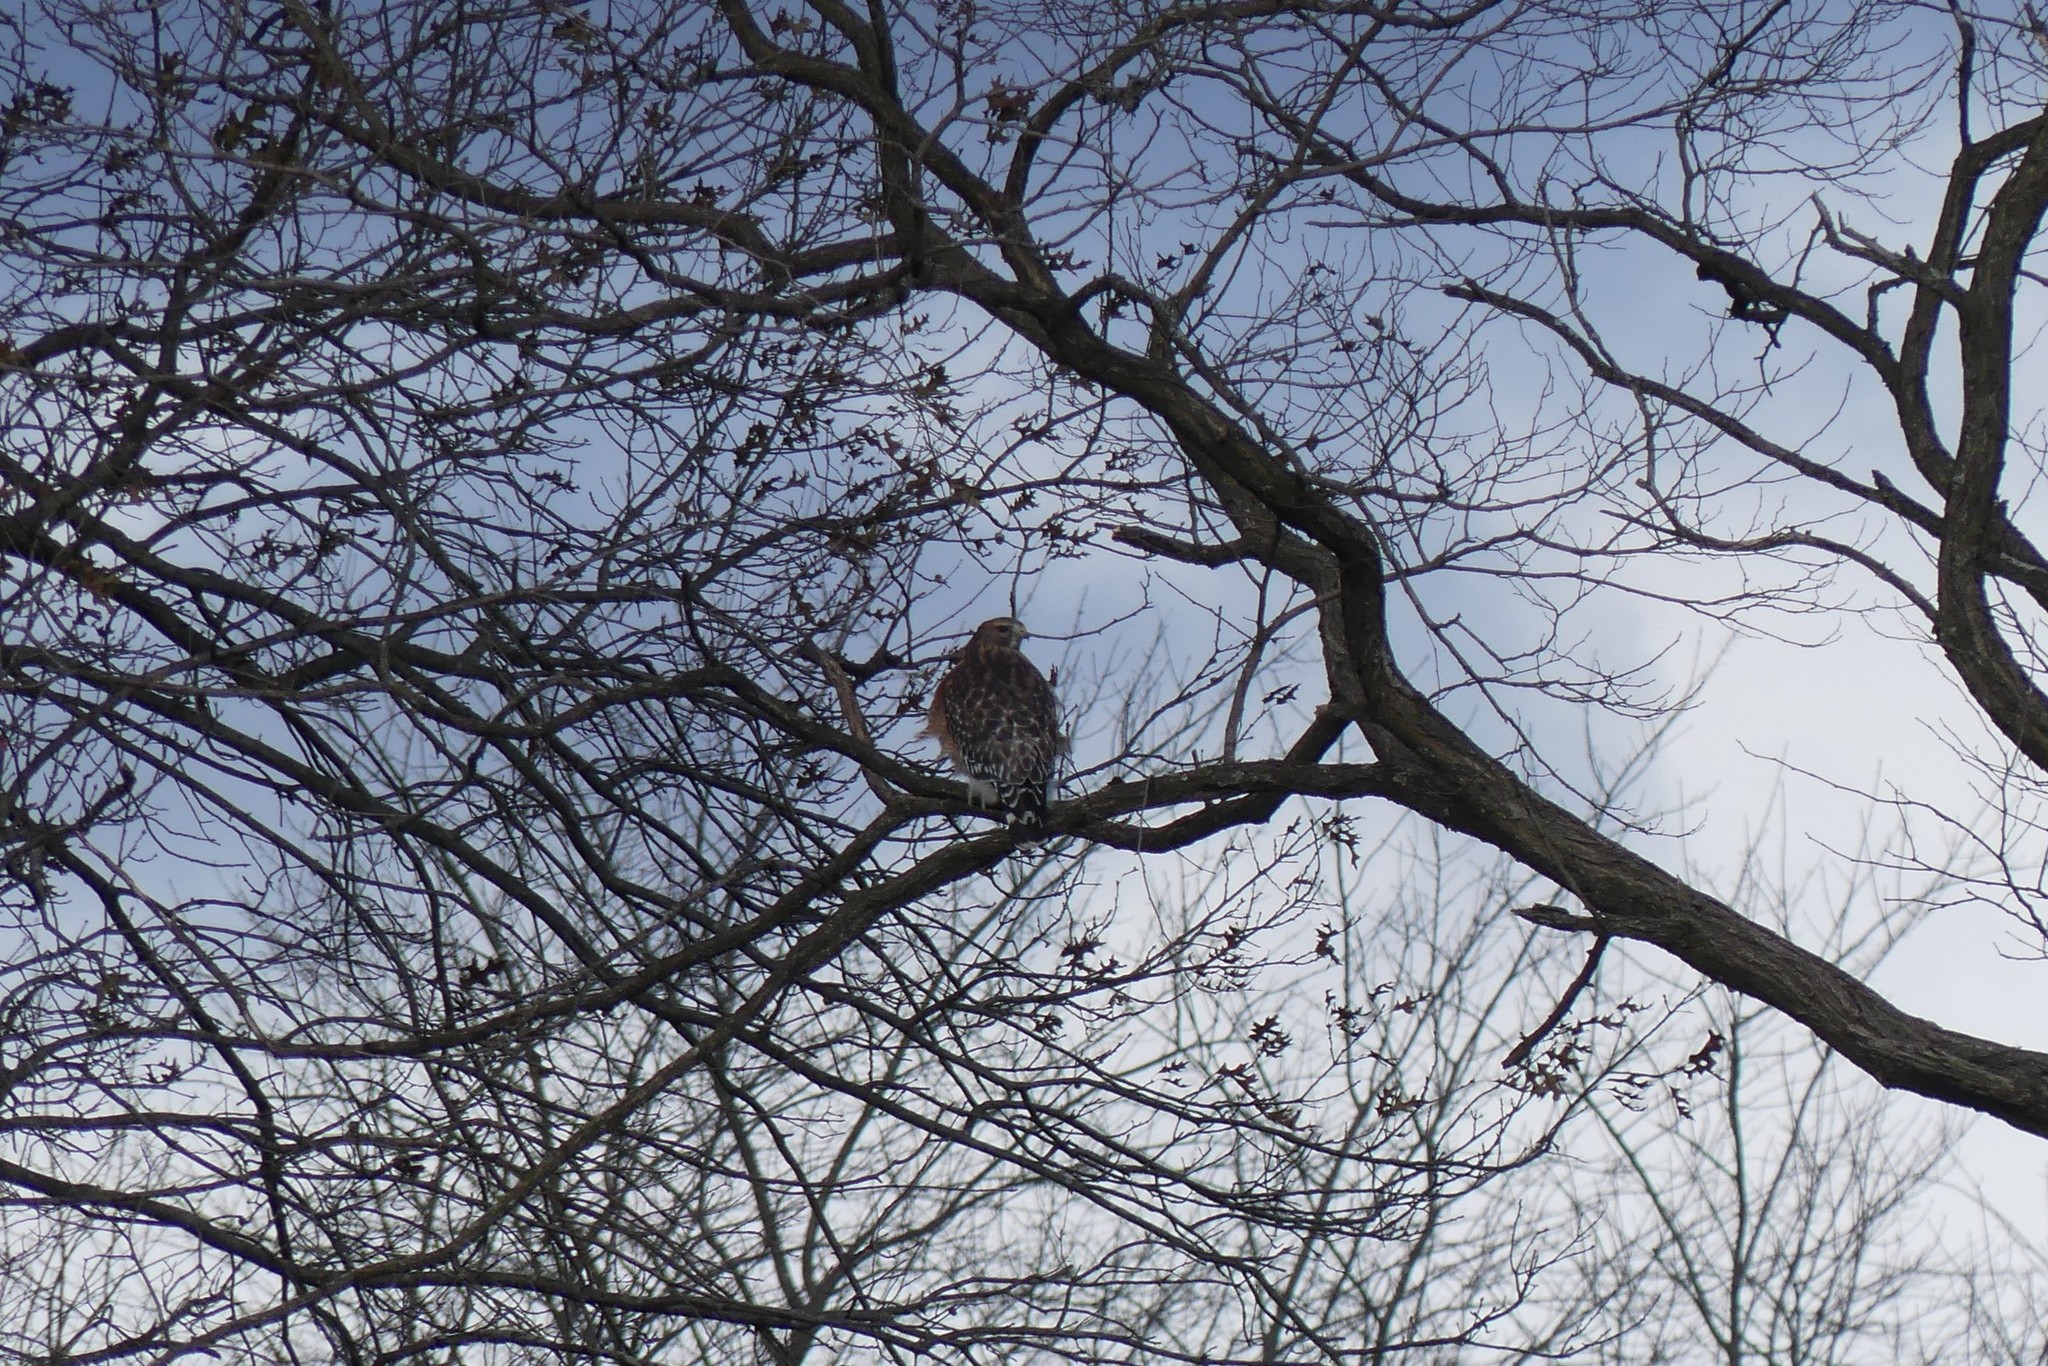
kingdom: Animalia
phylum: Chordata
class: Aves
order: Accipitriformes
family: Accipitridae
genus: Buteo
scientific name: Buteo lineatus
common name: Red-shouldered hawk
